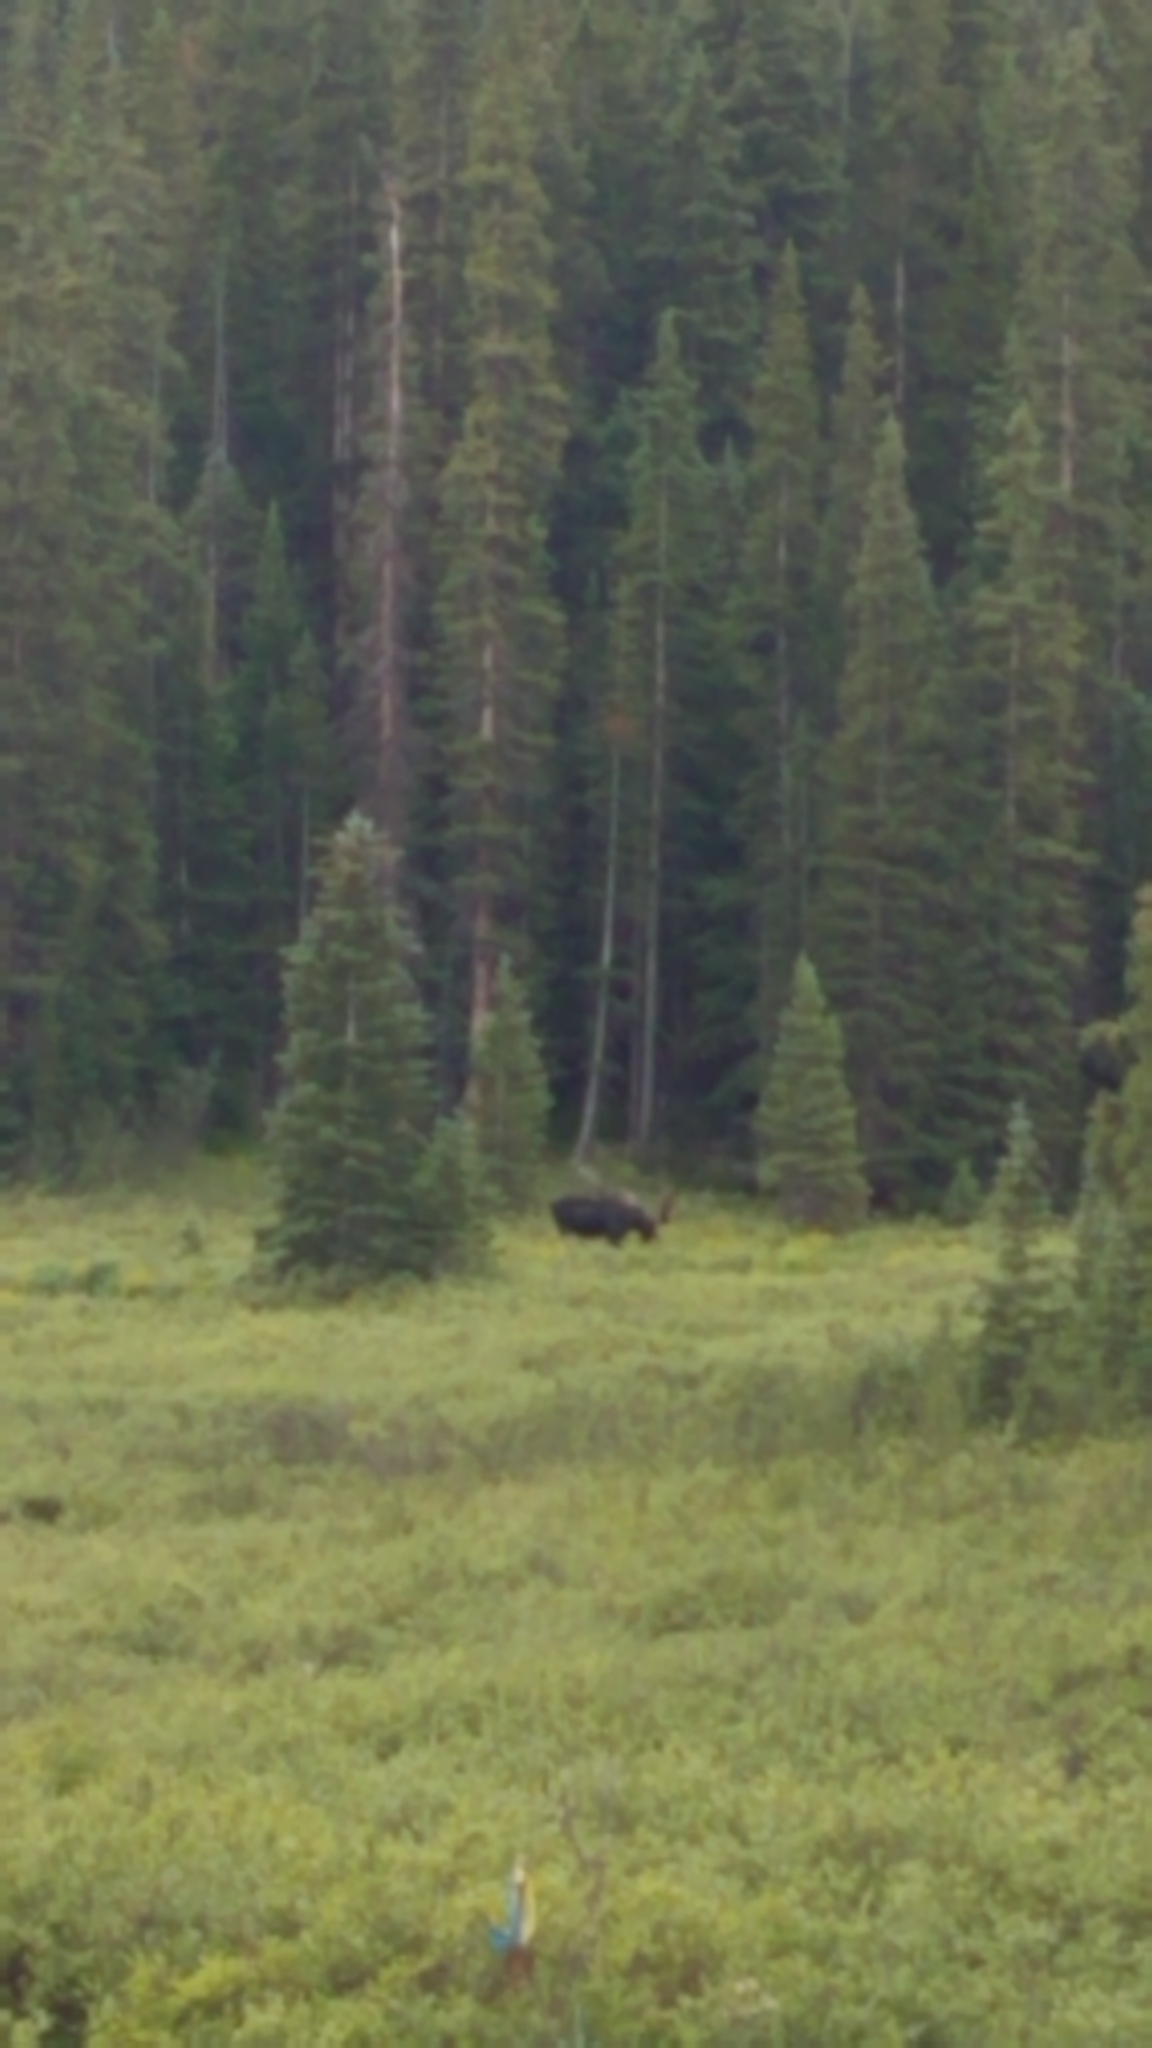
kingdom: Animalia
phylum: Chordata
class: Mammalia
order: Artiodactyla
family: Cervidae
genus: Alces
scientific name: Alces alces
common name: Moose
